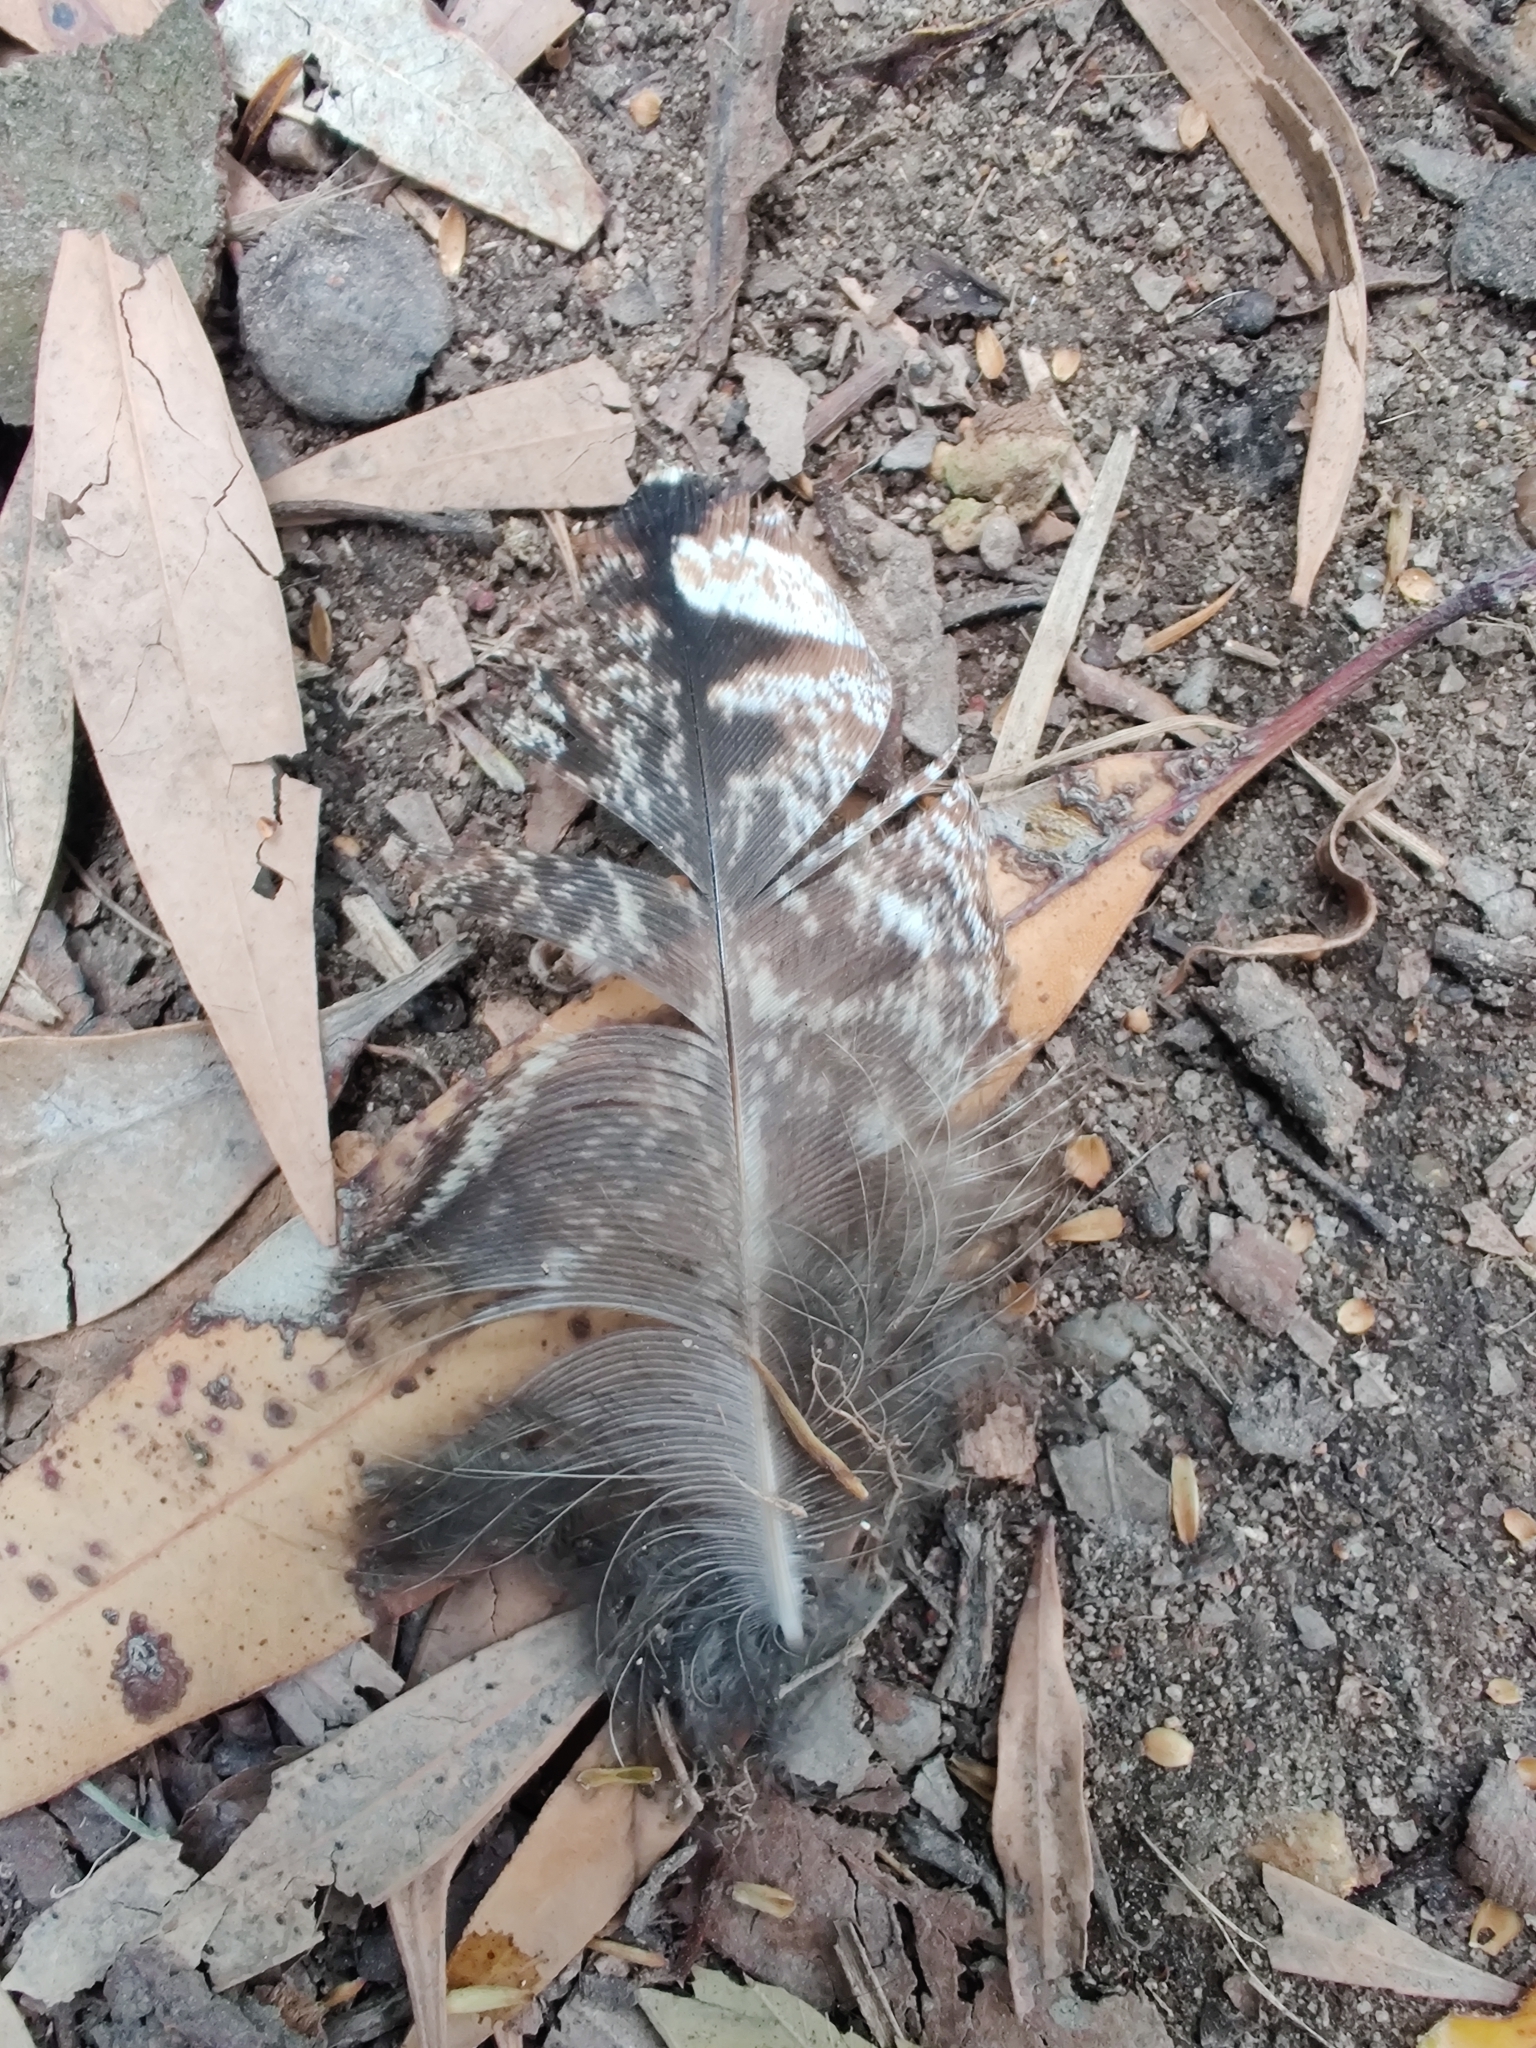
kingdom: Animalia
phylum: Chordata
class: Aves
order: Caprimulgiformes
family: Podargidae
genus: Podargus
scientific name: Podargus strigoides
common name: Tawny frogmouth
